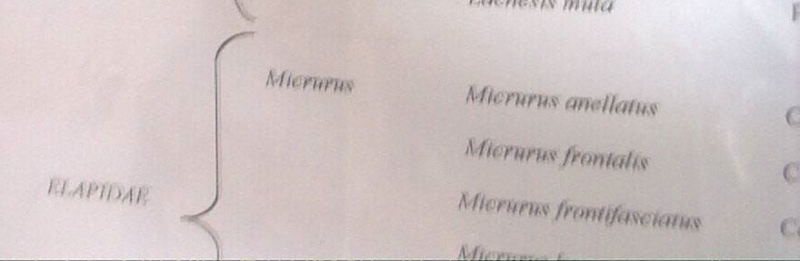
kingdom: Animalia
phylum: Chordata
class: Squamata
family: Colubridae
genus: Oxyrhopus
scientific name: Oxyrhopus emberti
